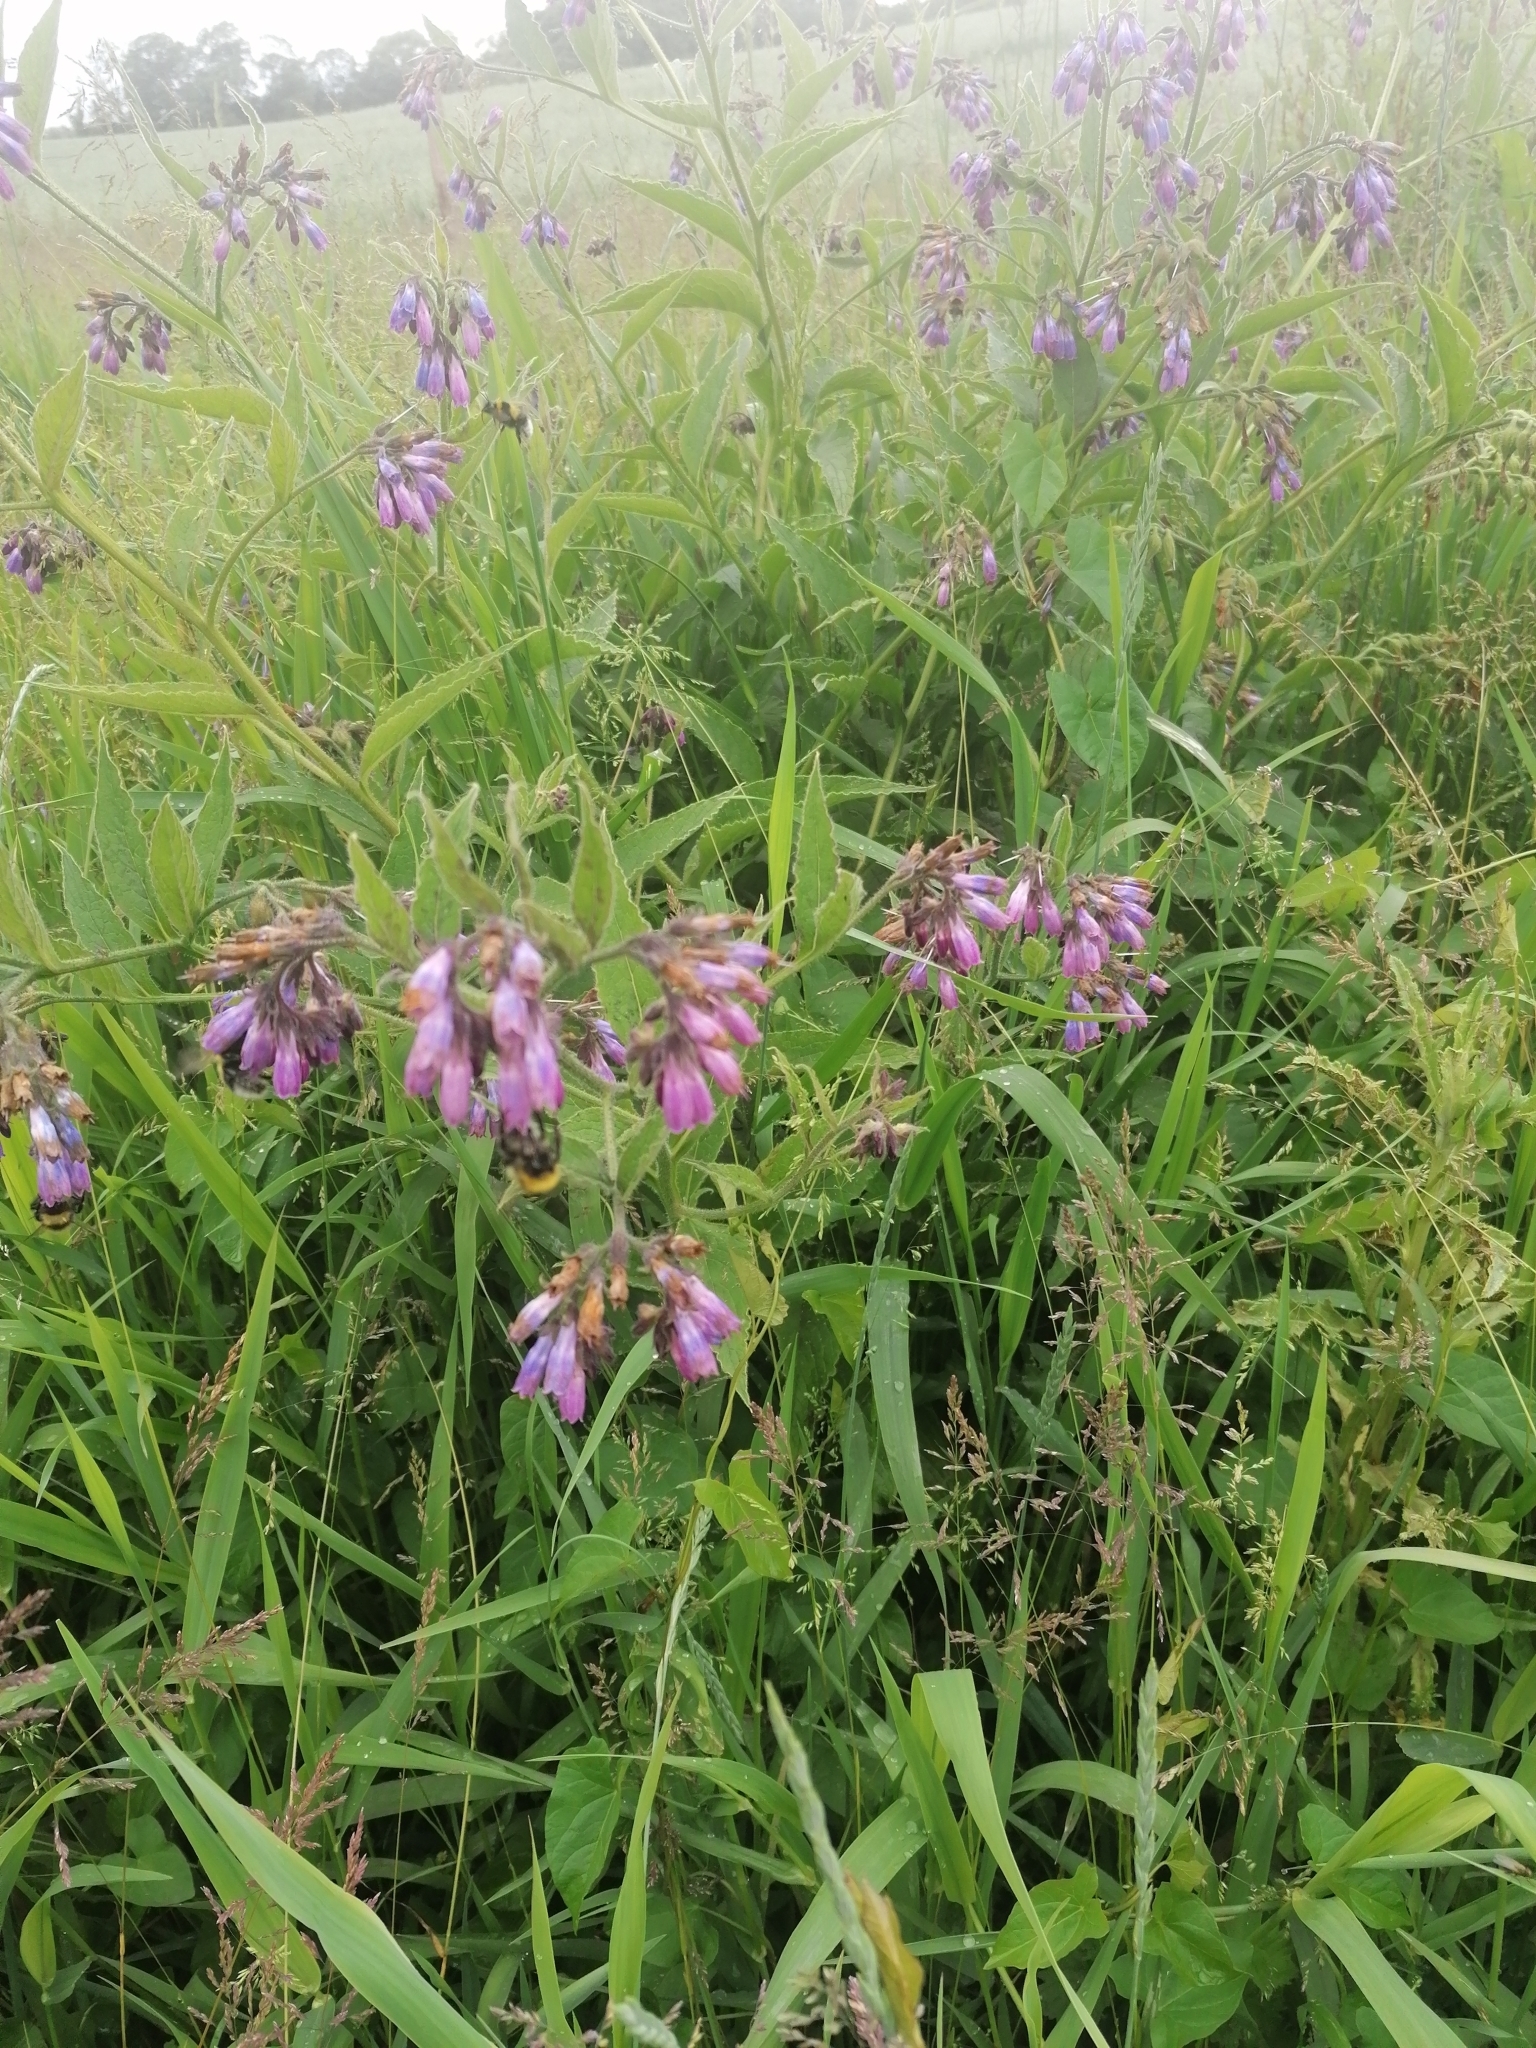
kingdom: Plantae
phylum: Tracheophyta
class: Magnoliopsida
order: Boraginales
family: Boraginaceae
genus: Symphytum
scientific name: Symphytum uplandicum
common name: Russian comfrey
